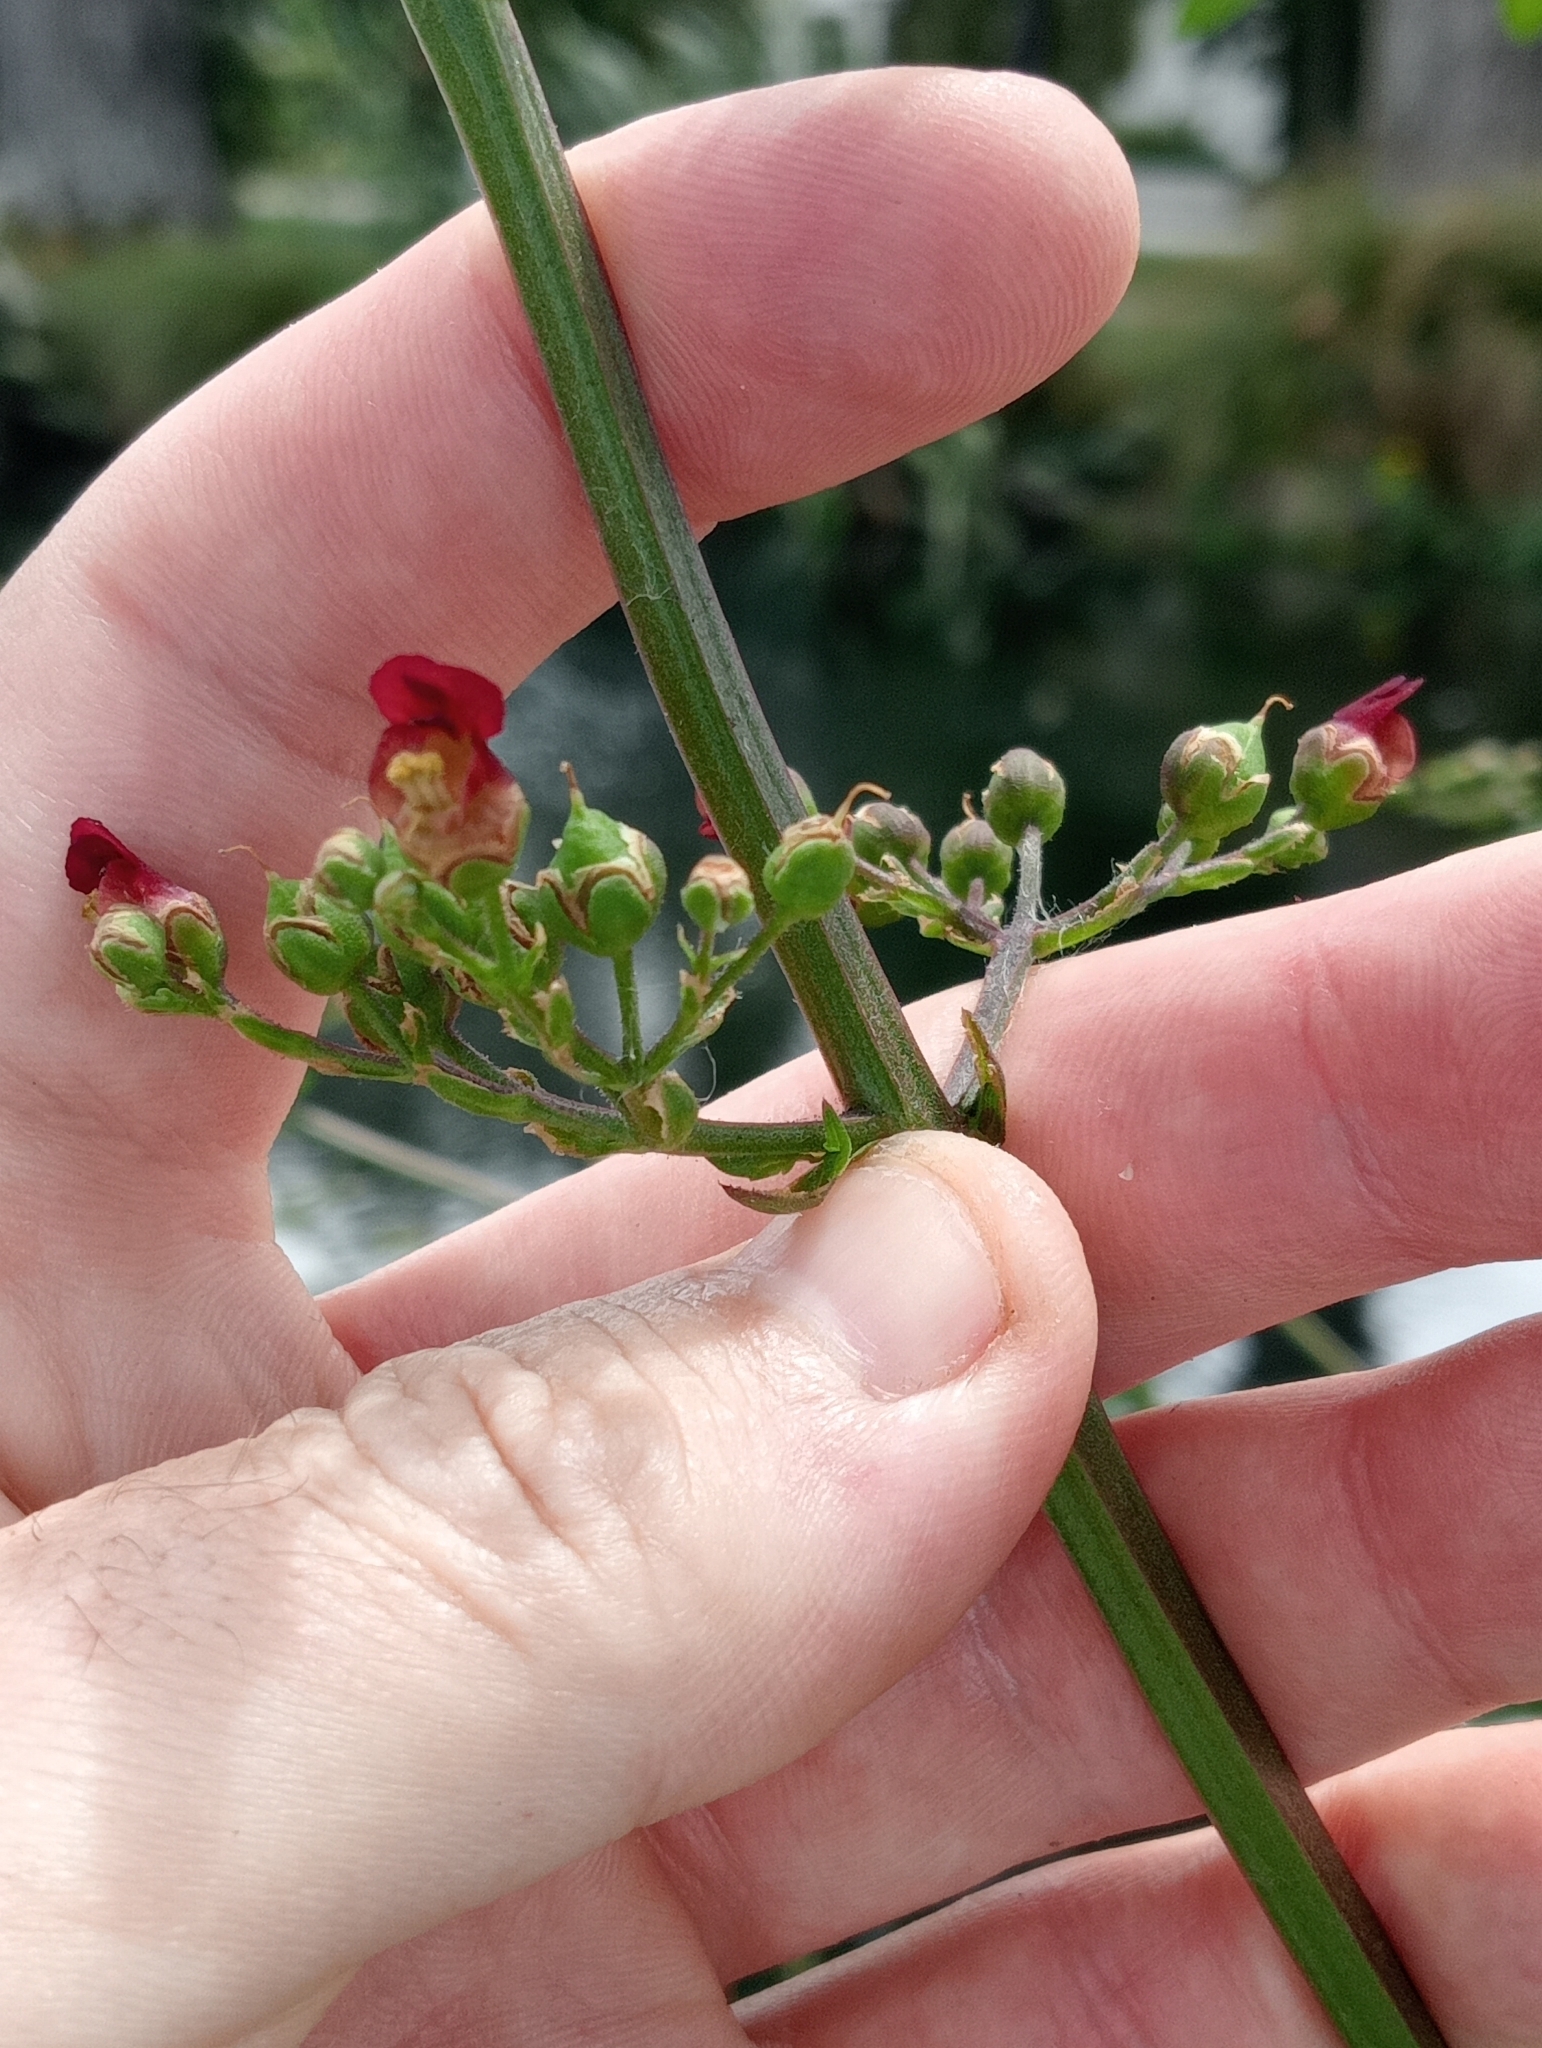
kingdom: Plantae
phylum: Tracheophyta
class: Magnoliopsida
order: Lamiales
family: Scrophulariaceae
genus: Scrophularia
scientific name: Scrophularia auriculata
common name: Water betony
